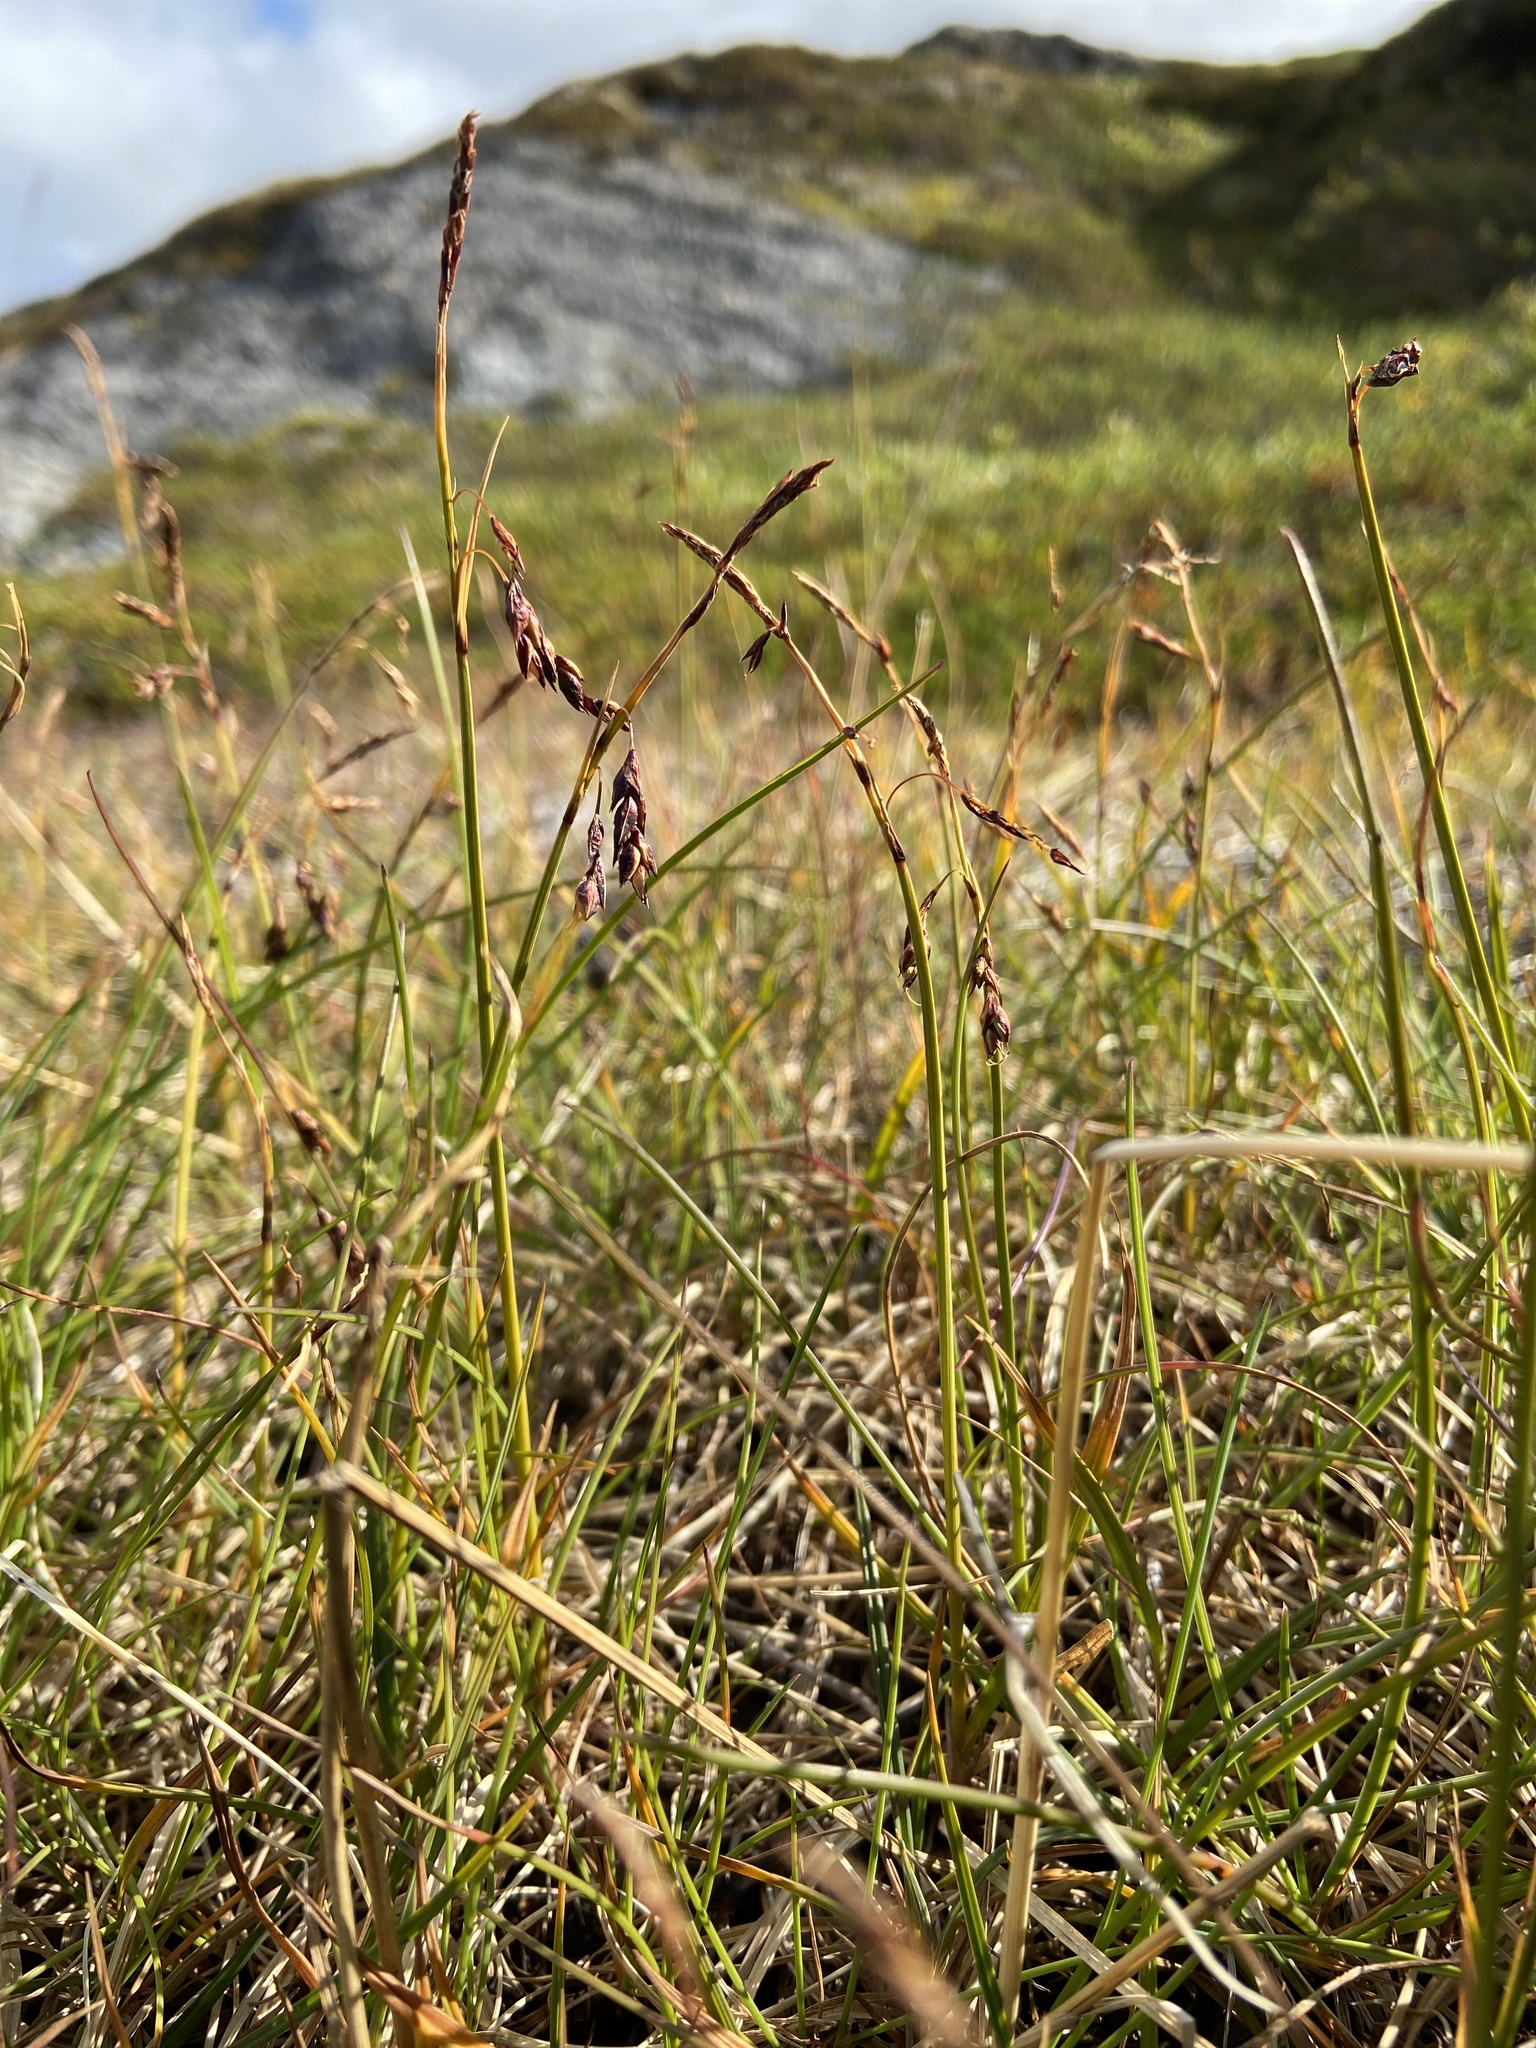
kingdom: Plantae
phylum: Tracheophyta
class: Liliopsida
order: Poales
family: Cyperaceae
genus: Carex
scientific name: Carex rariflora
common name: Loose-flowered alpine sedge
